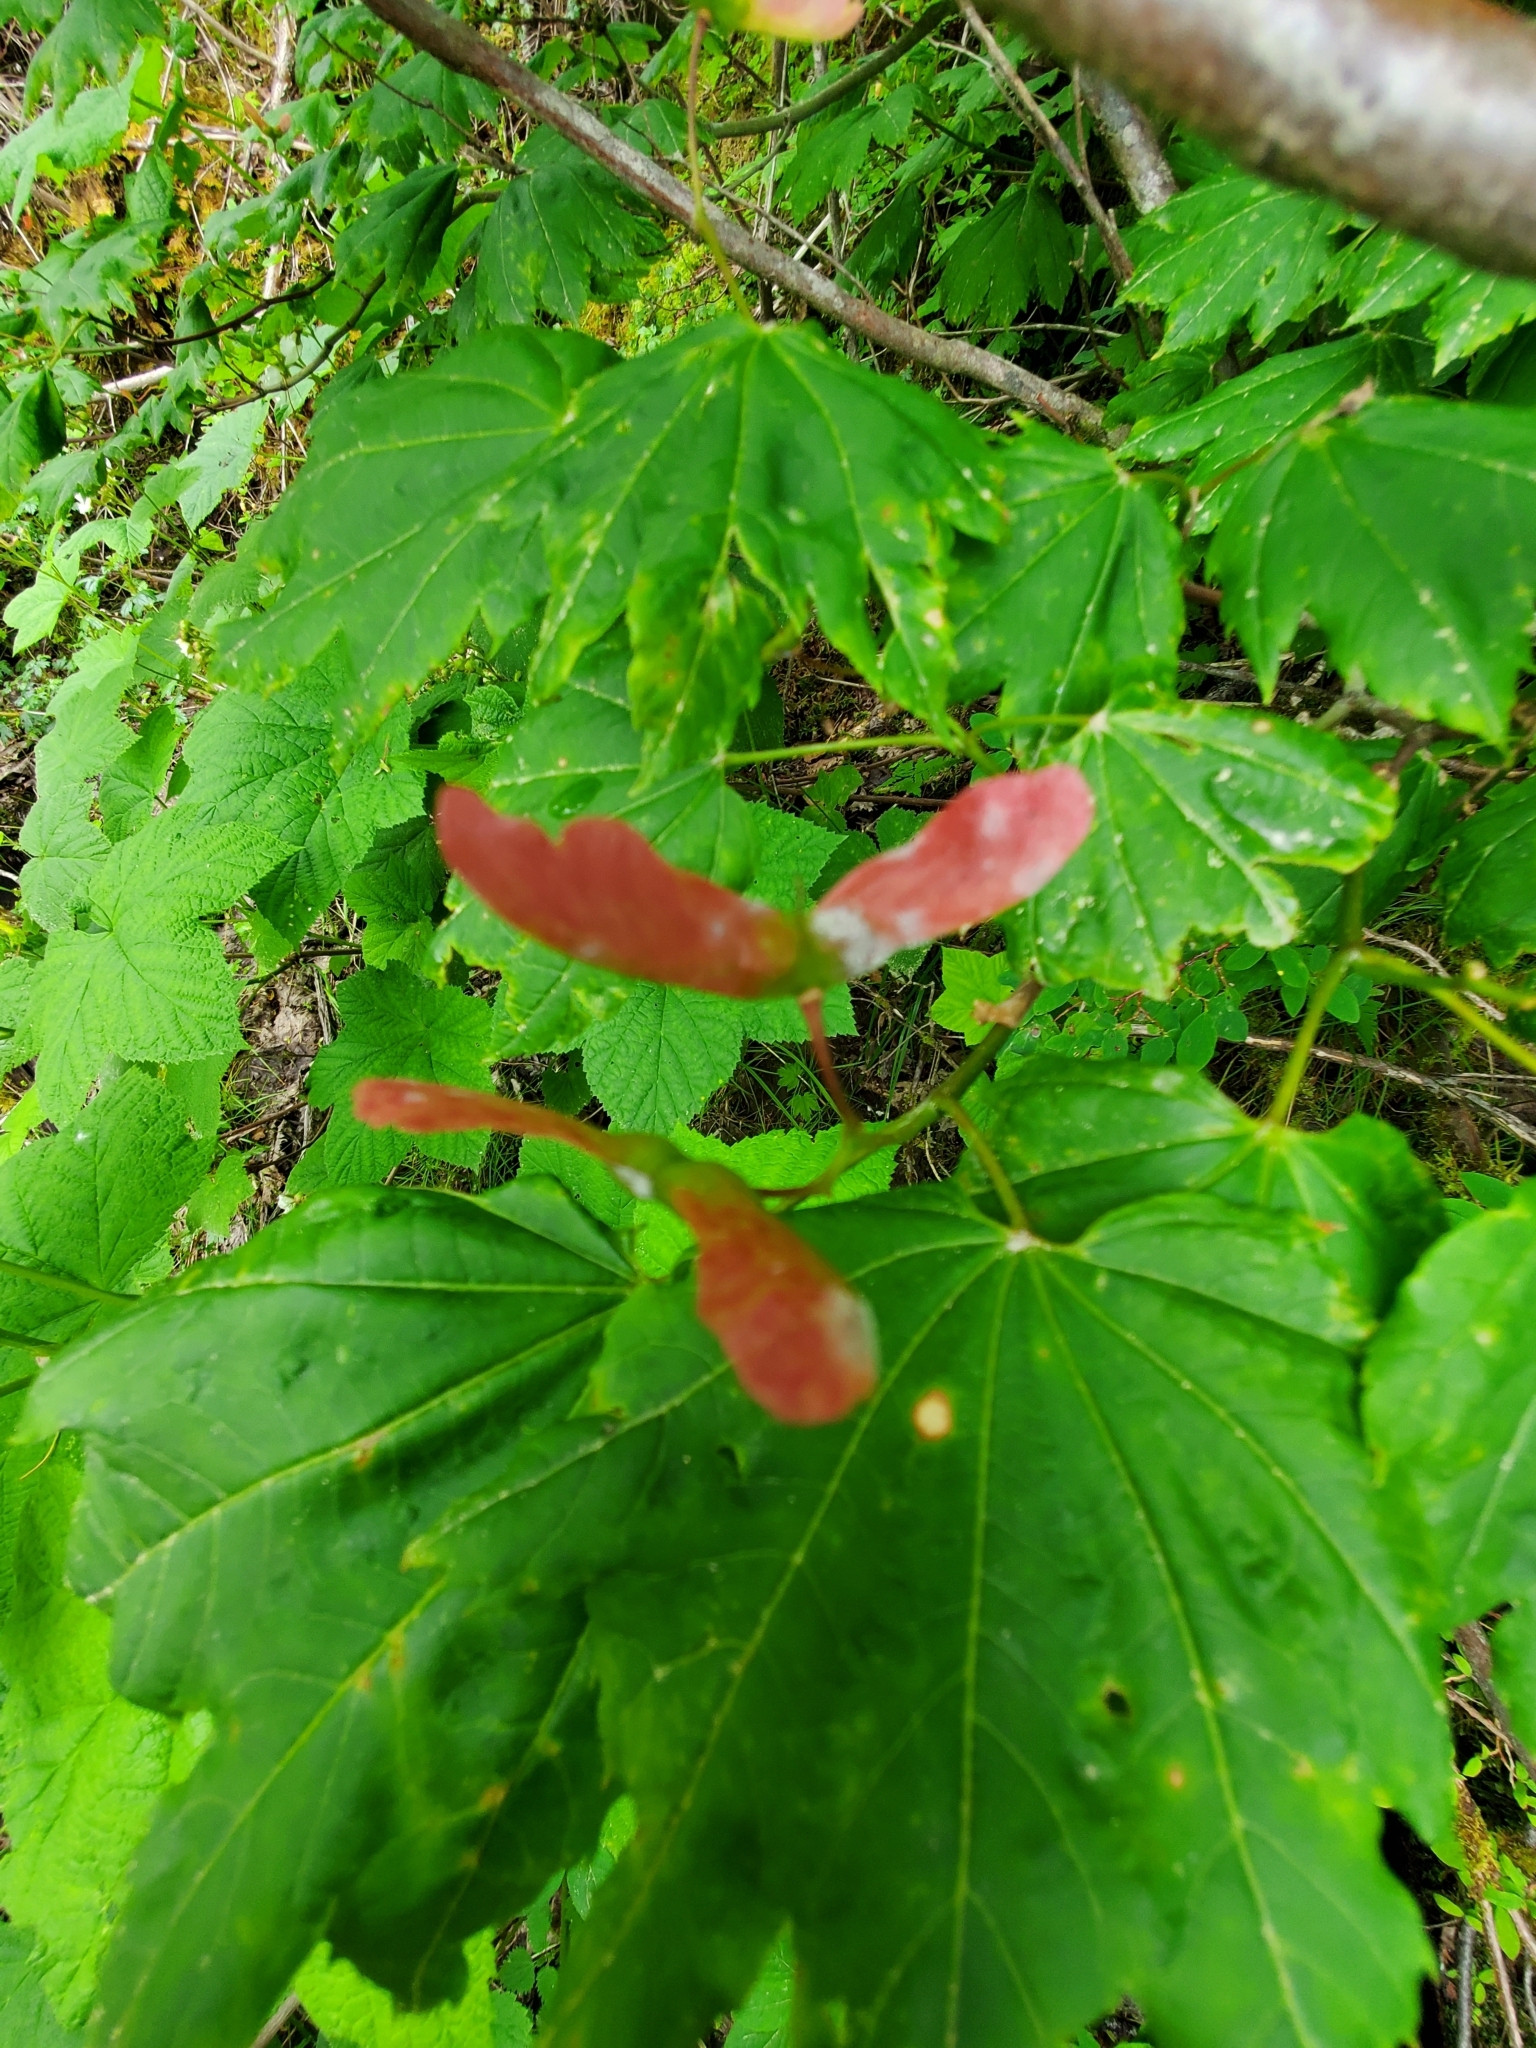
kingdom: Plantae
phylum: Tracheophyta
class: Magnoliopsida
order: Sapindales
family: Sapindaceae
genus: Acer
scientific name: Acer circinatum
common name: Vine maple
